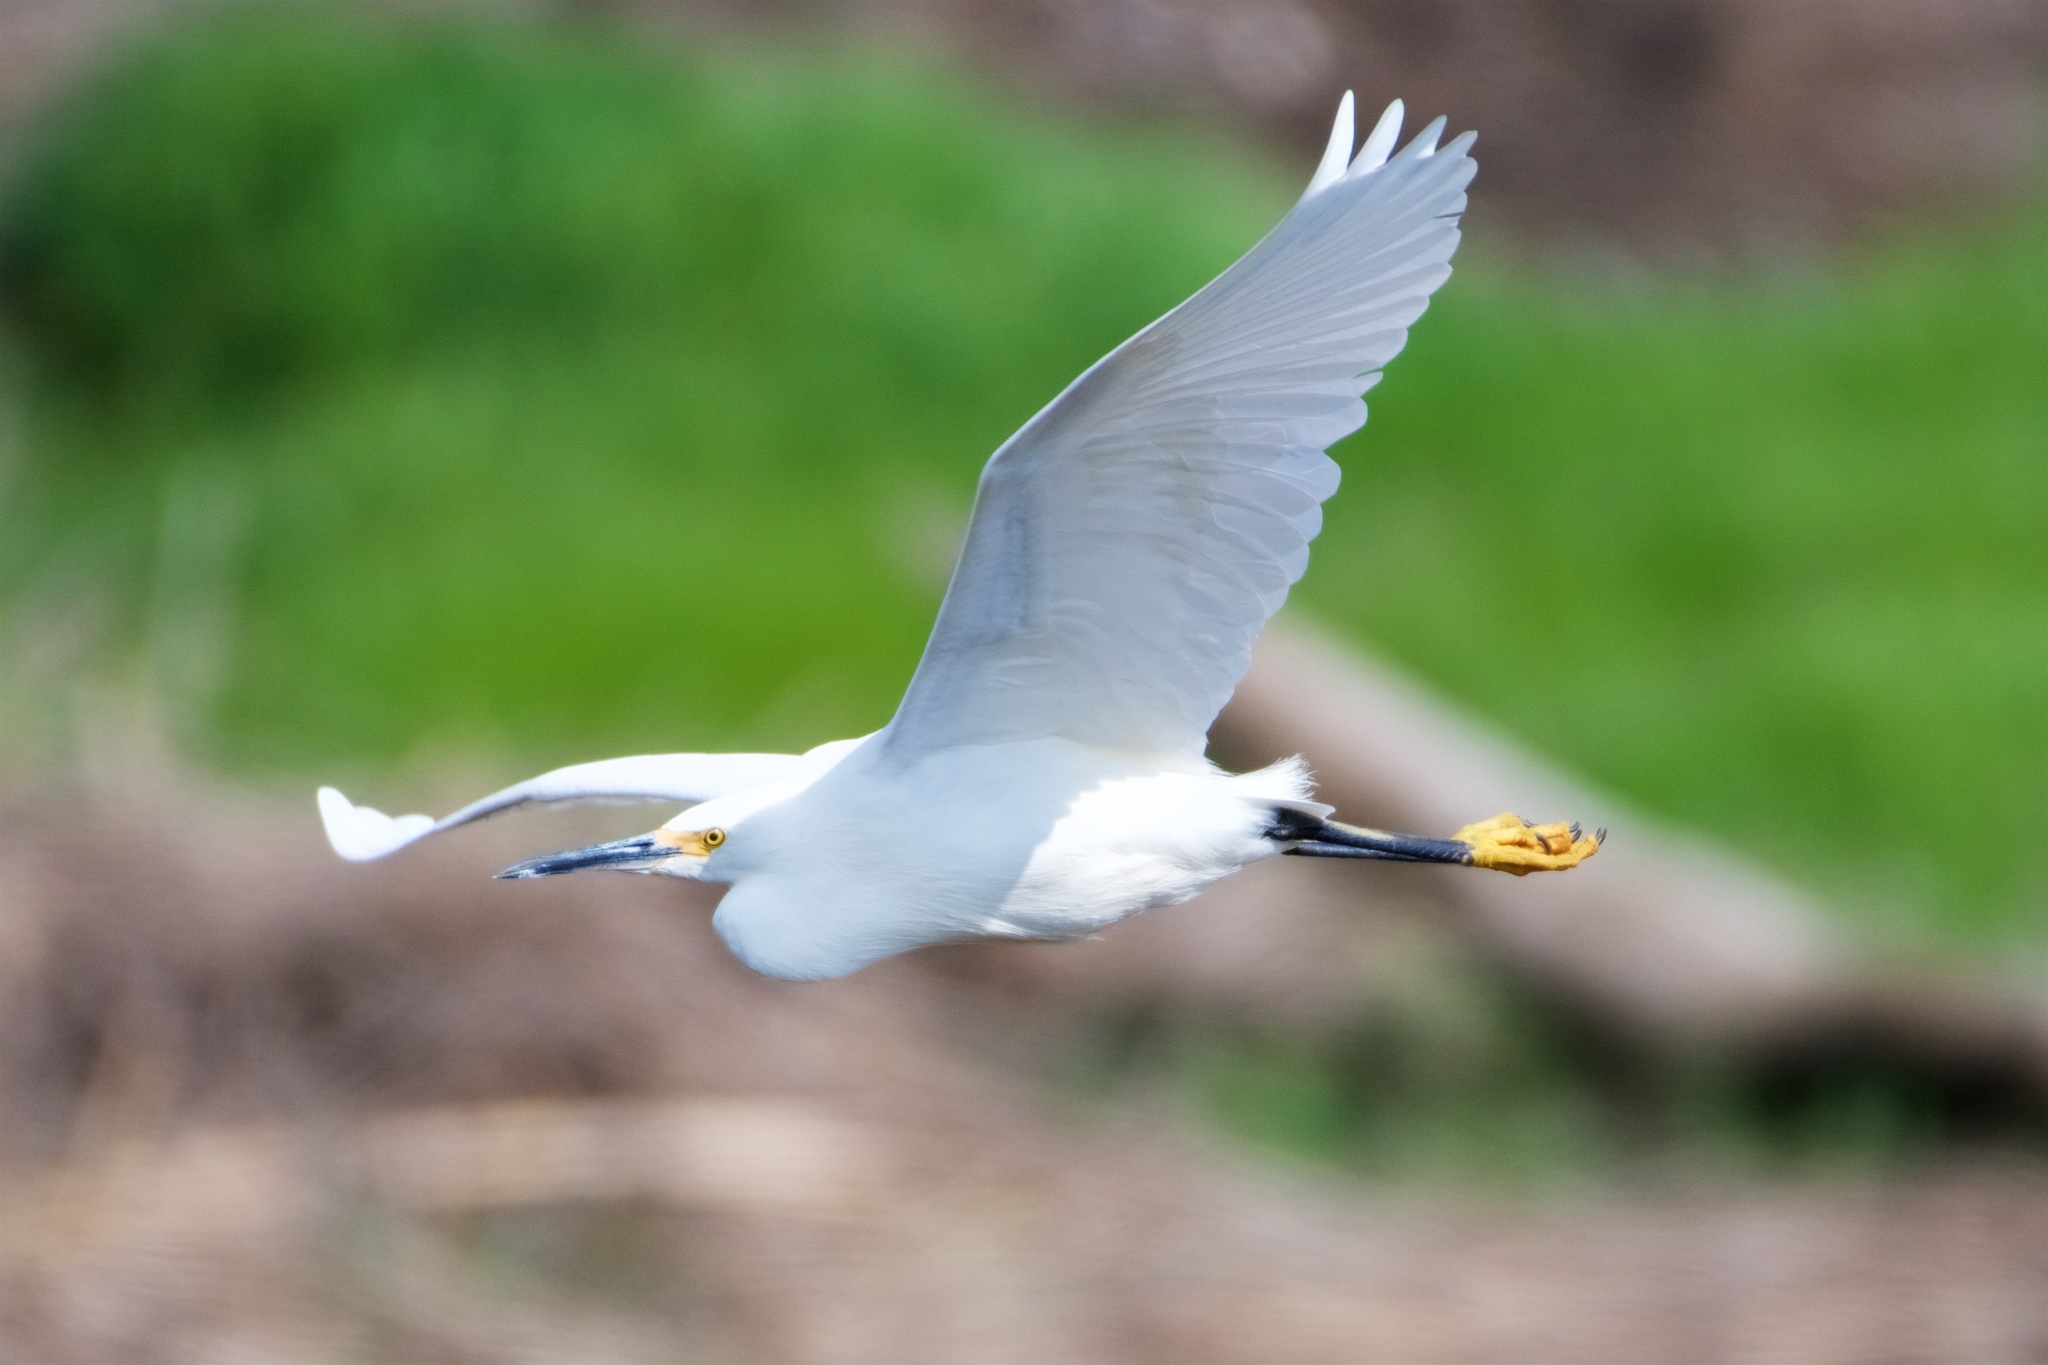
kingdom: Animalia
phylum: Chordata
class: Aves
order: Pelecaniformes
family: Ardeidae
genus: Egretta
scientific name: Egretta thula
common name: Snowy egret
